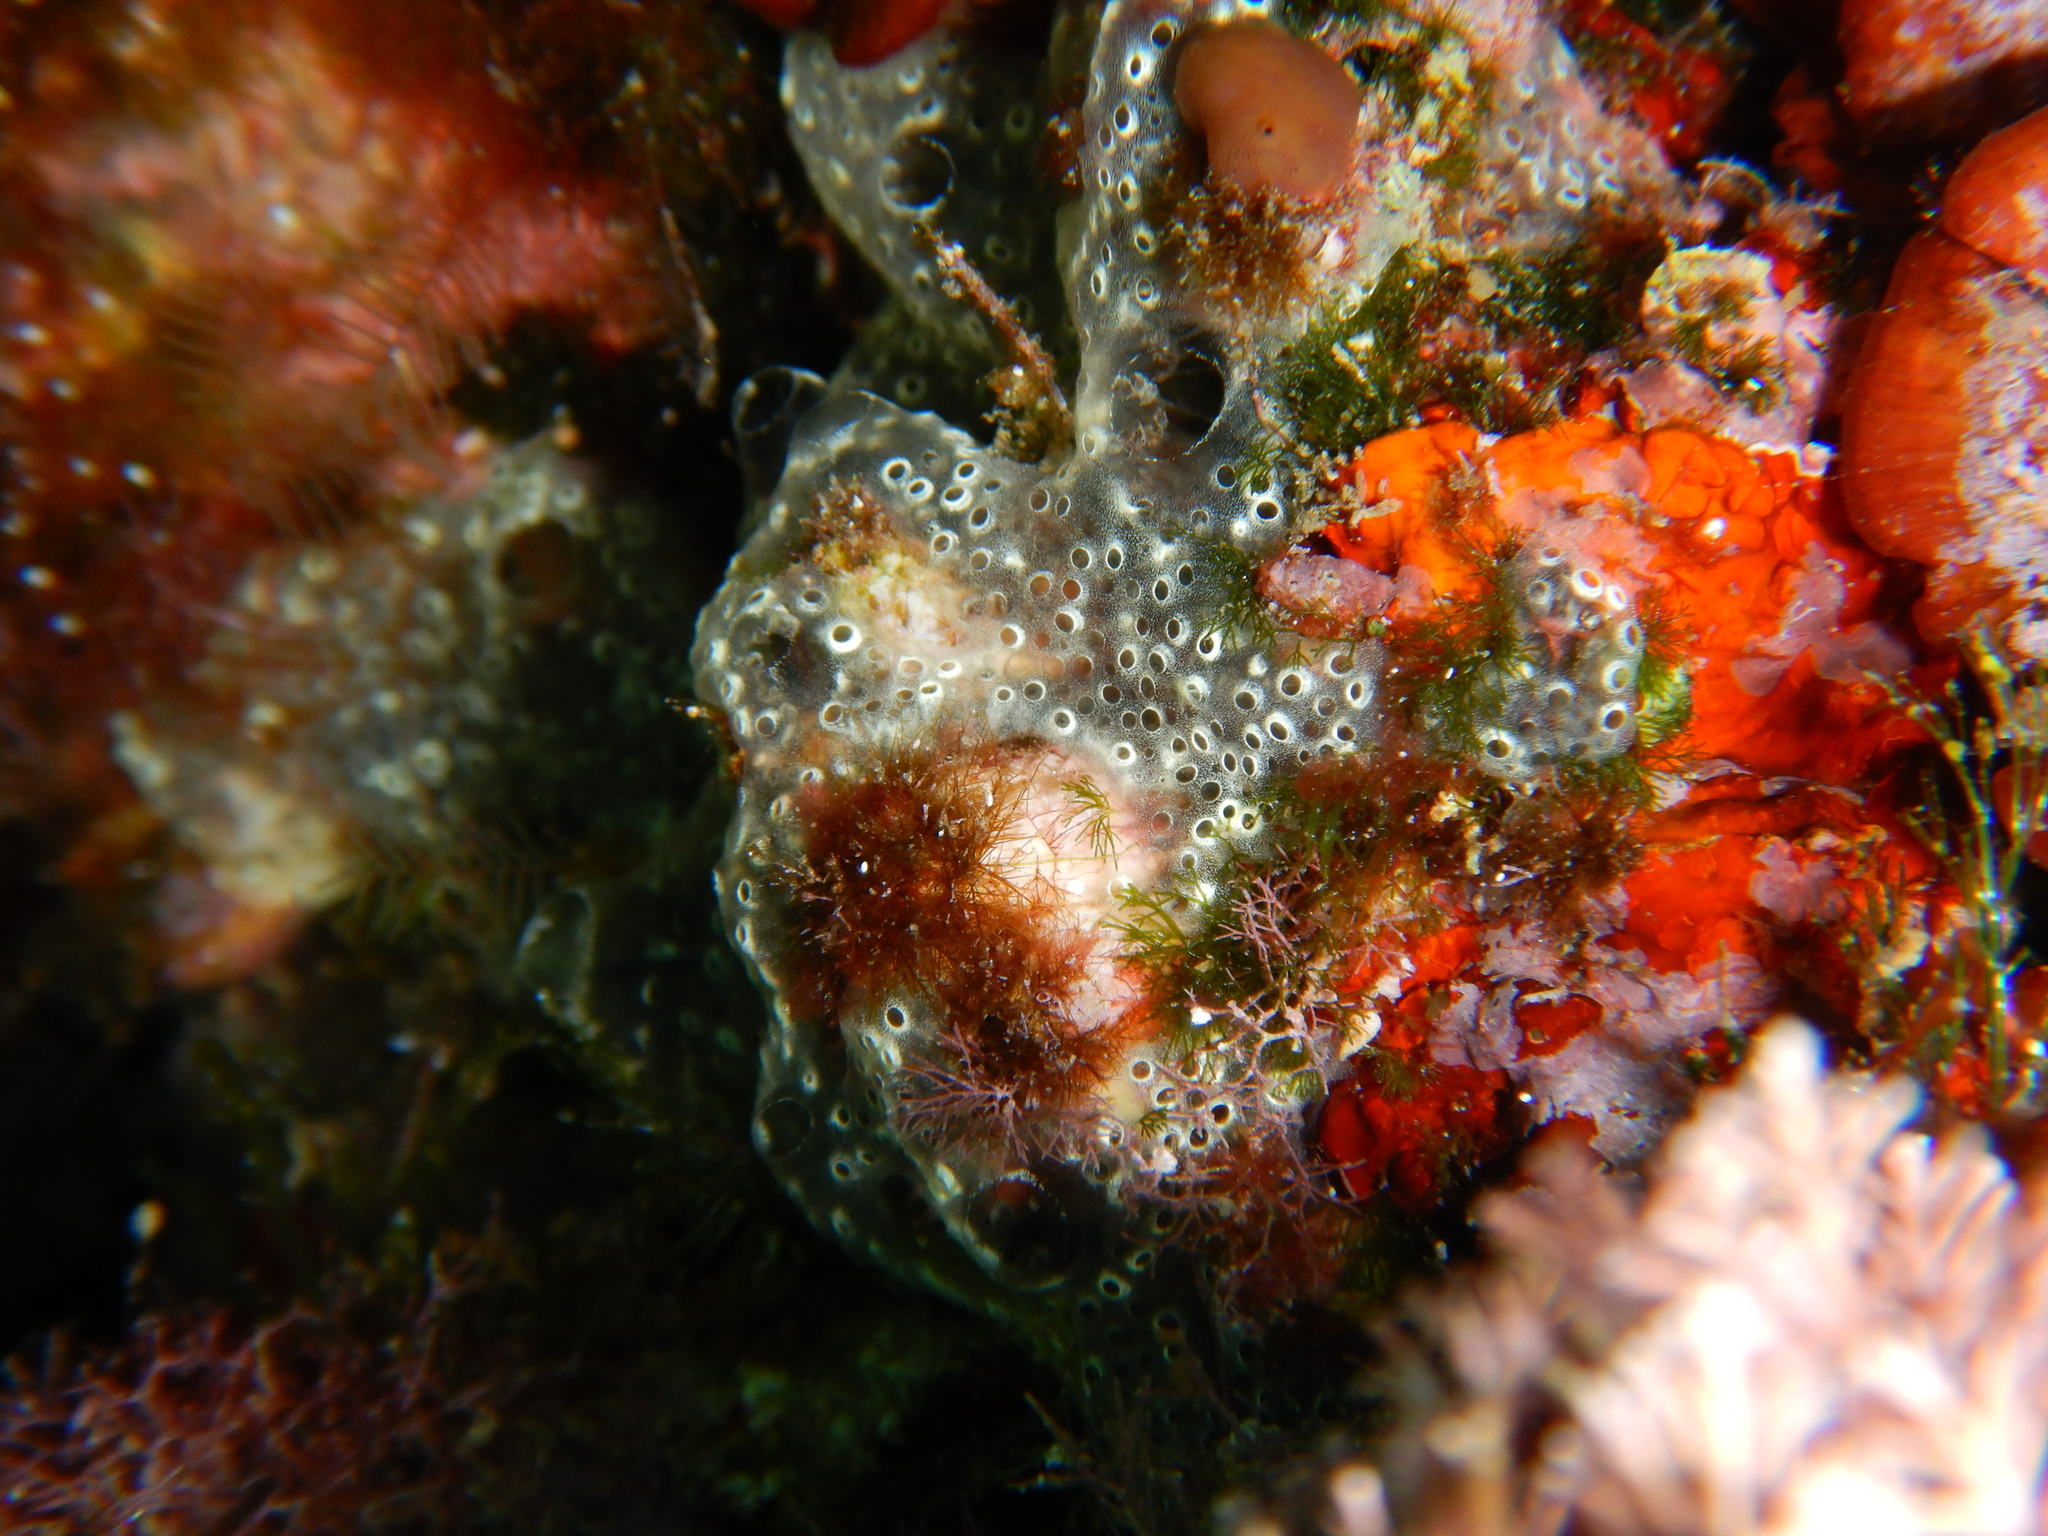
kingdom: Animalia
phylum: Chordata
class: Ascidiacea
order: Aplousobranchia
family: Didemnidae
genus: Diplosoma
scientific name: Diplosoma spongiforme
